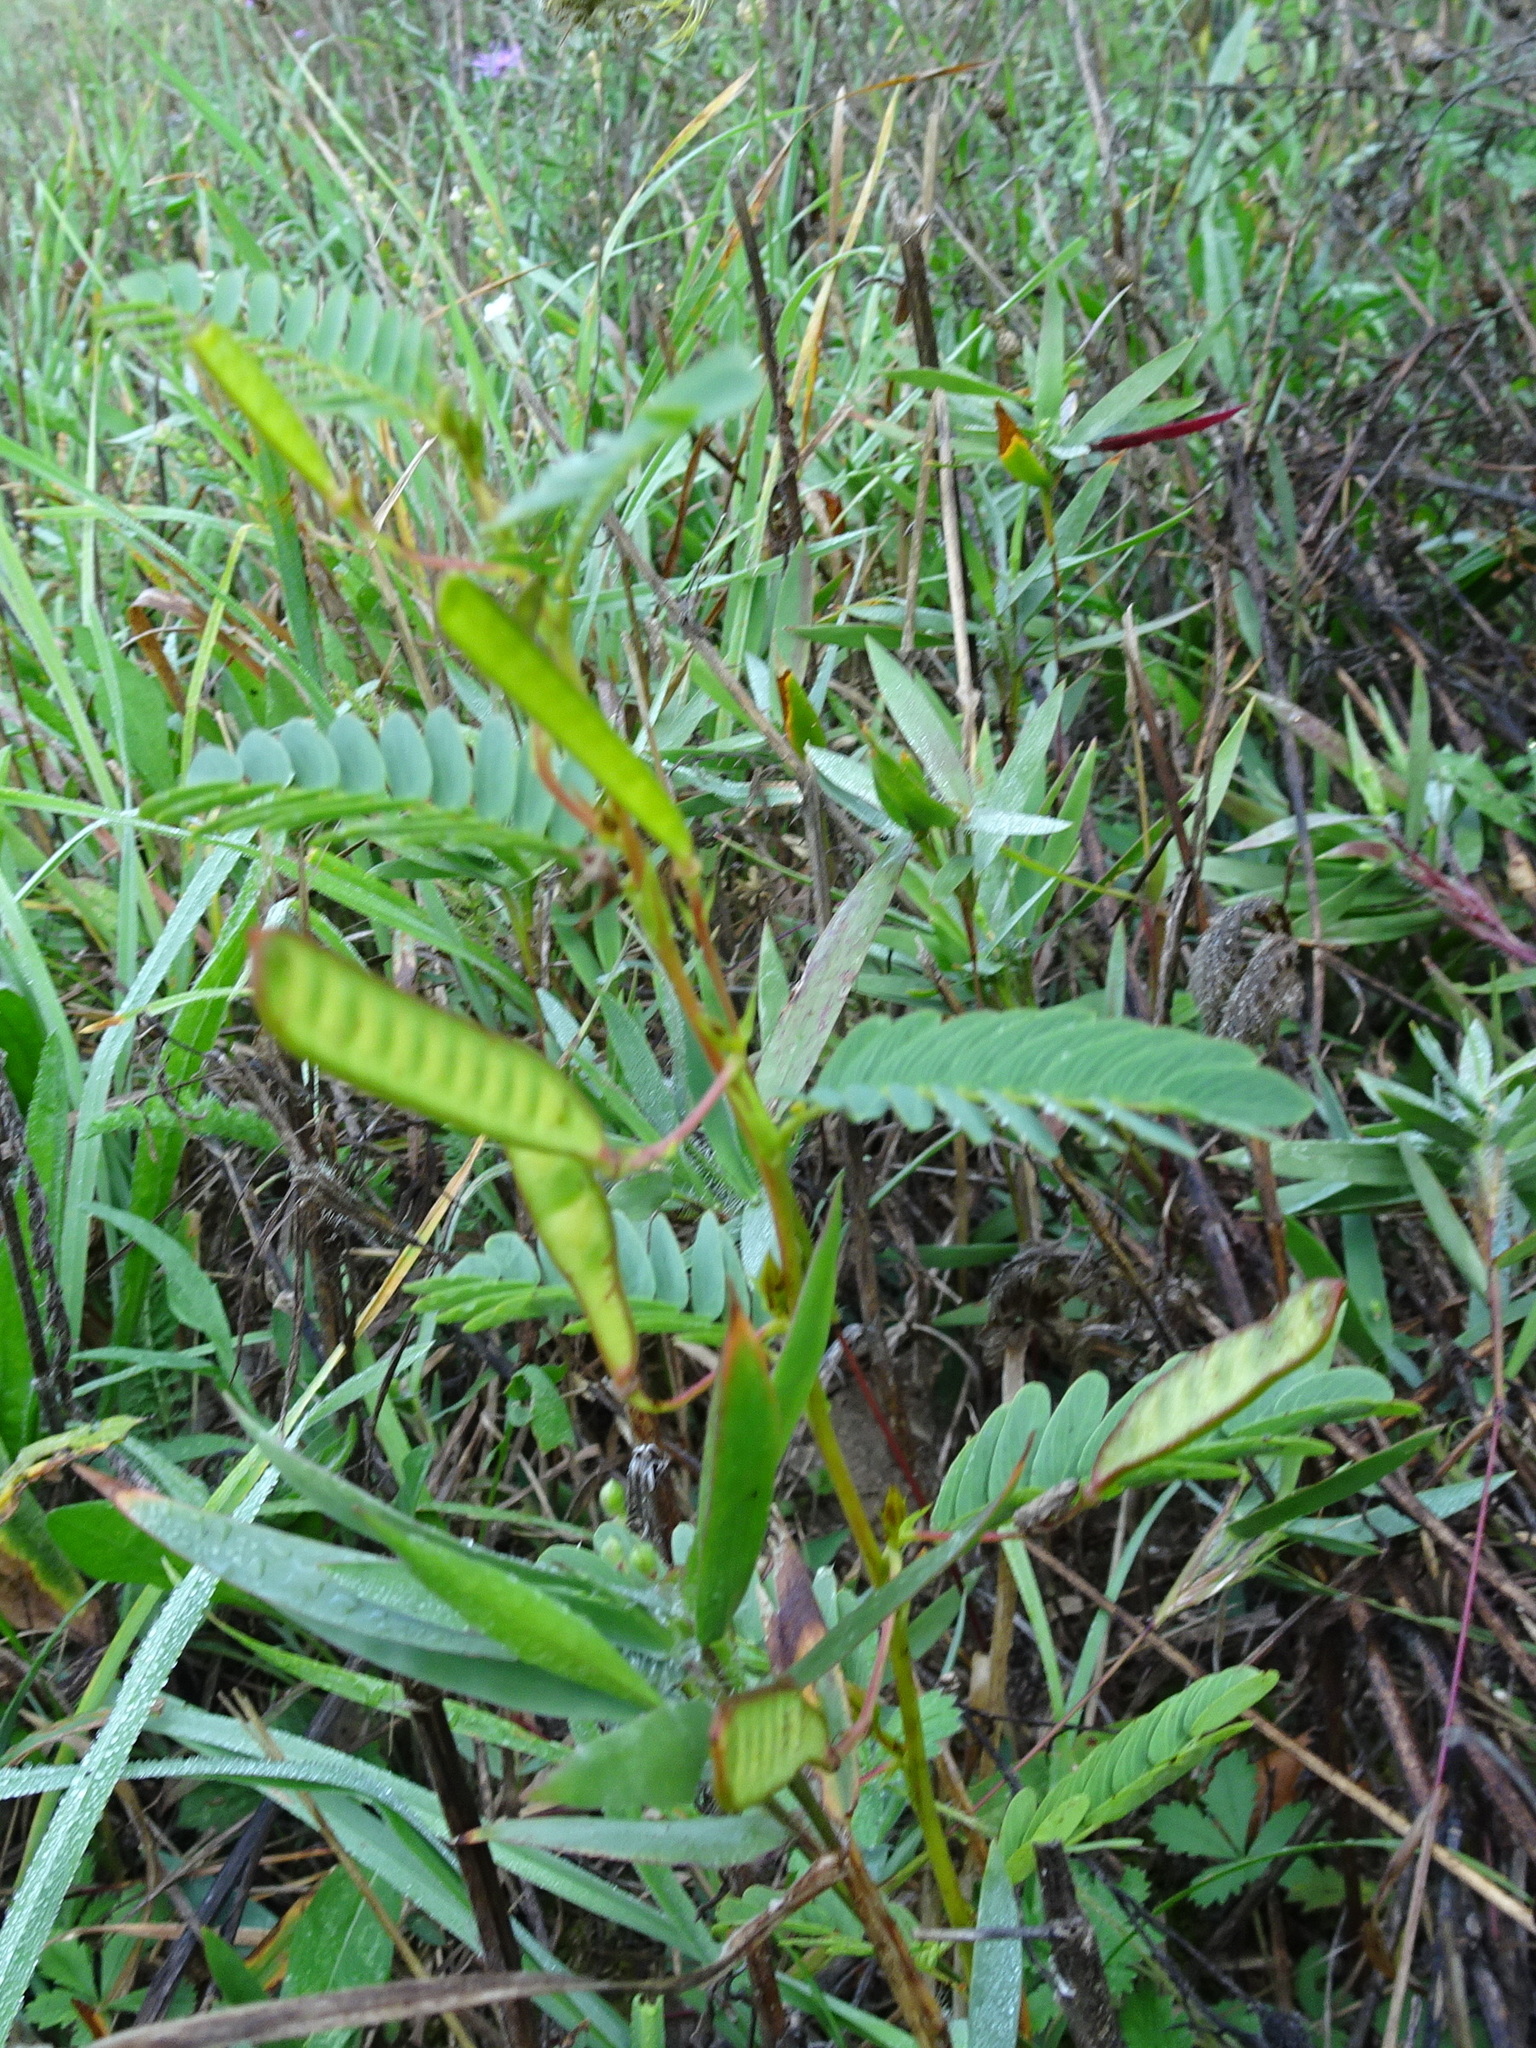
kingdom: Plantae
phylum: Tracheophyta
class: Magnoliopsida
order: Fabales
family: Fabaceae
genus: Chamaecrista
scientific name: Chamaecrista fasciculata
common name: Golden cassia
